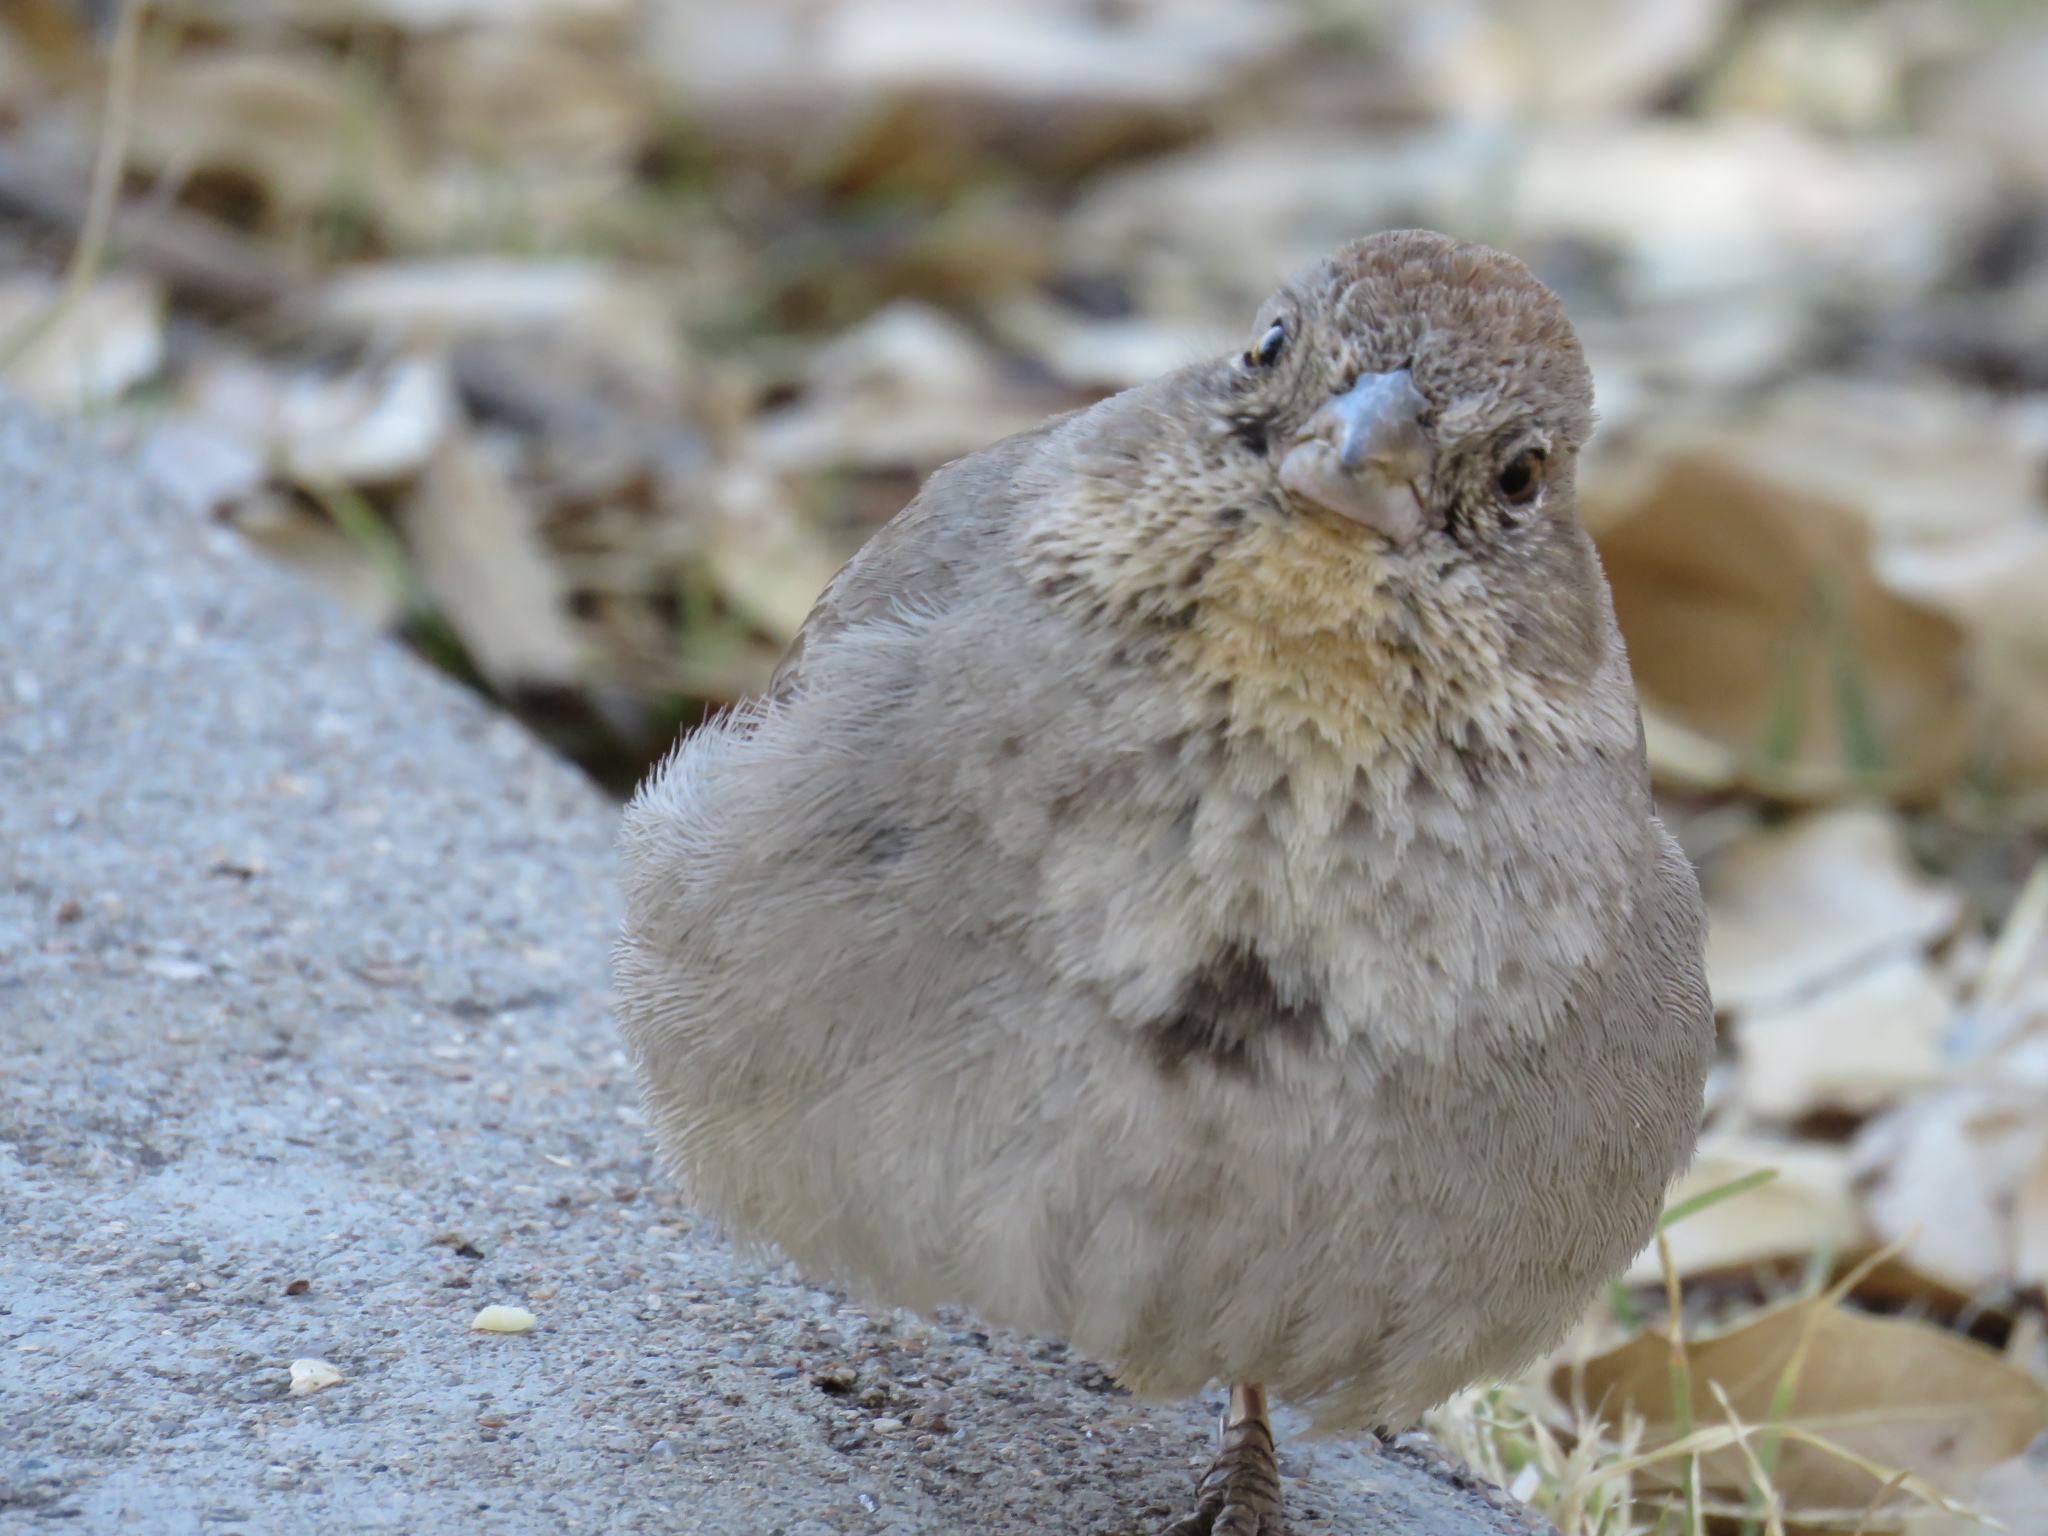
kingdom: Animalia
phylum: Chordata
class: Aves
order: Passeriformes
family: Passerellidae
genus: Melozone
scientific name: Melozone fusca
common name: Canyon towhee
